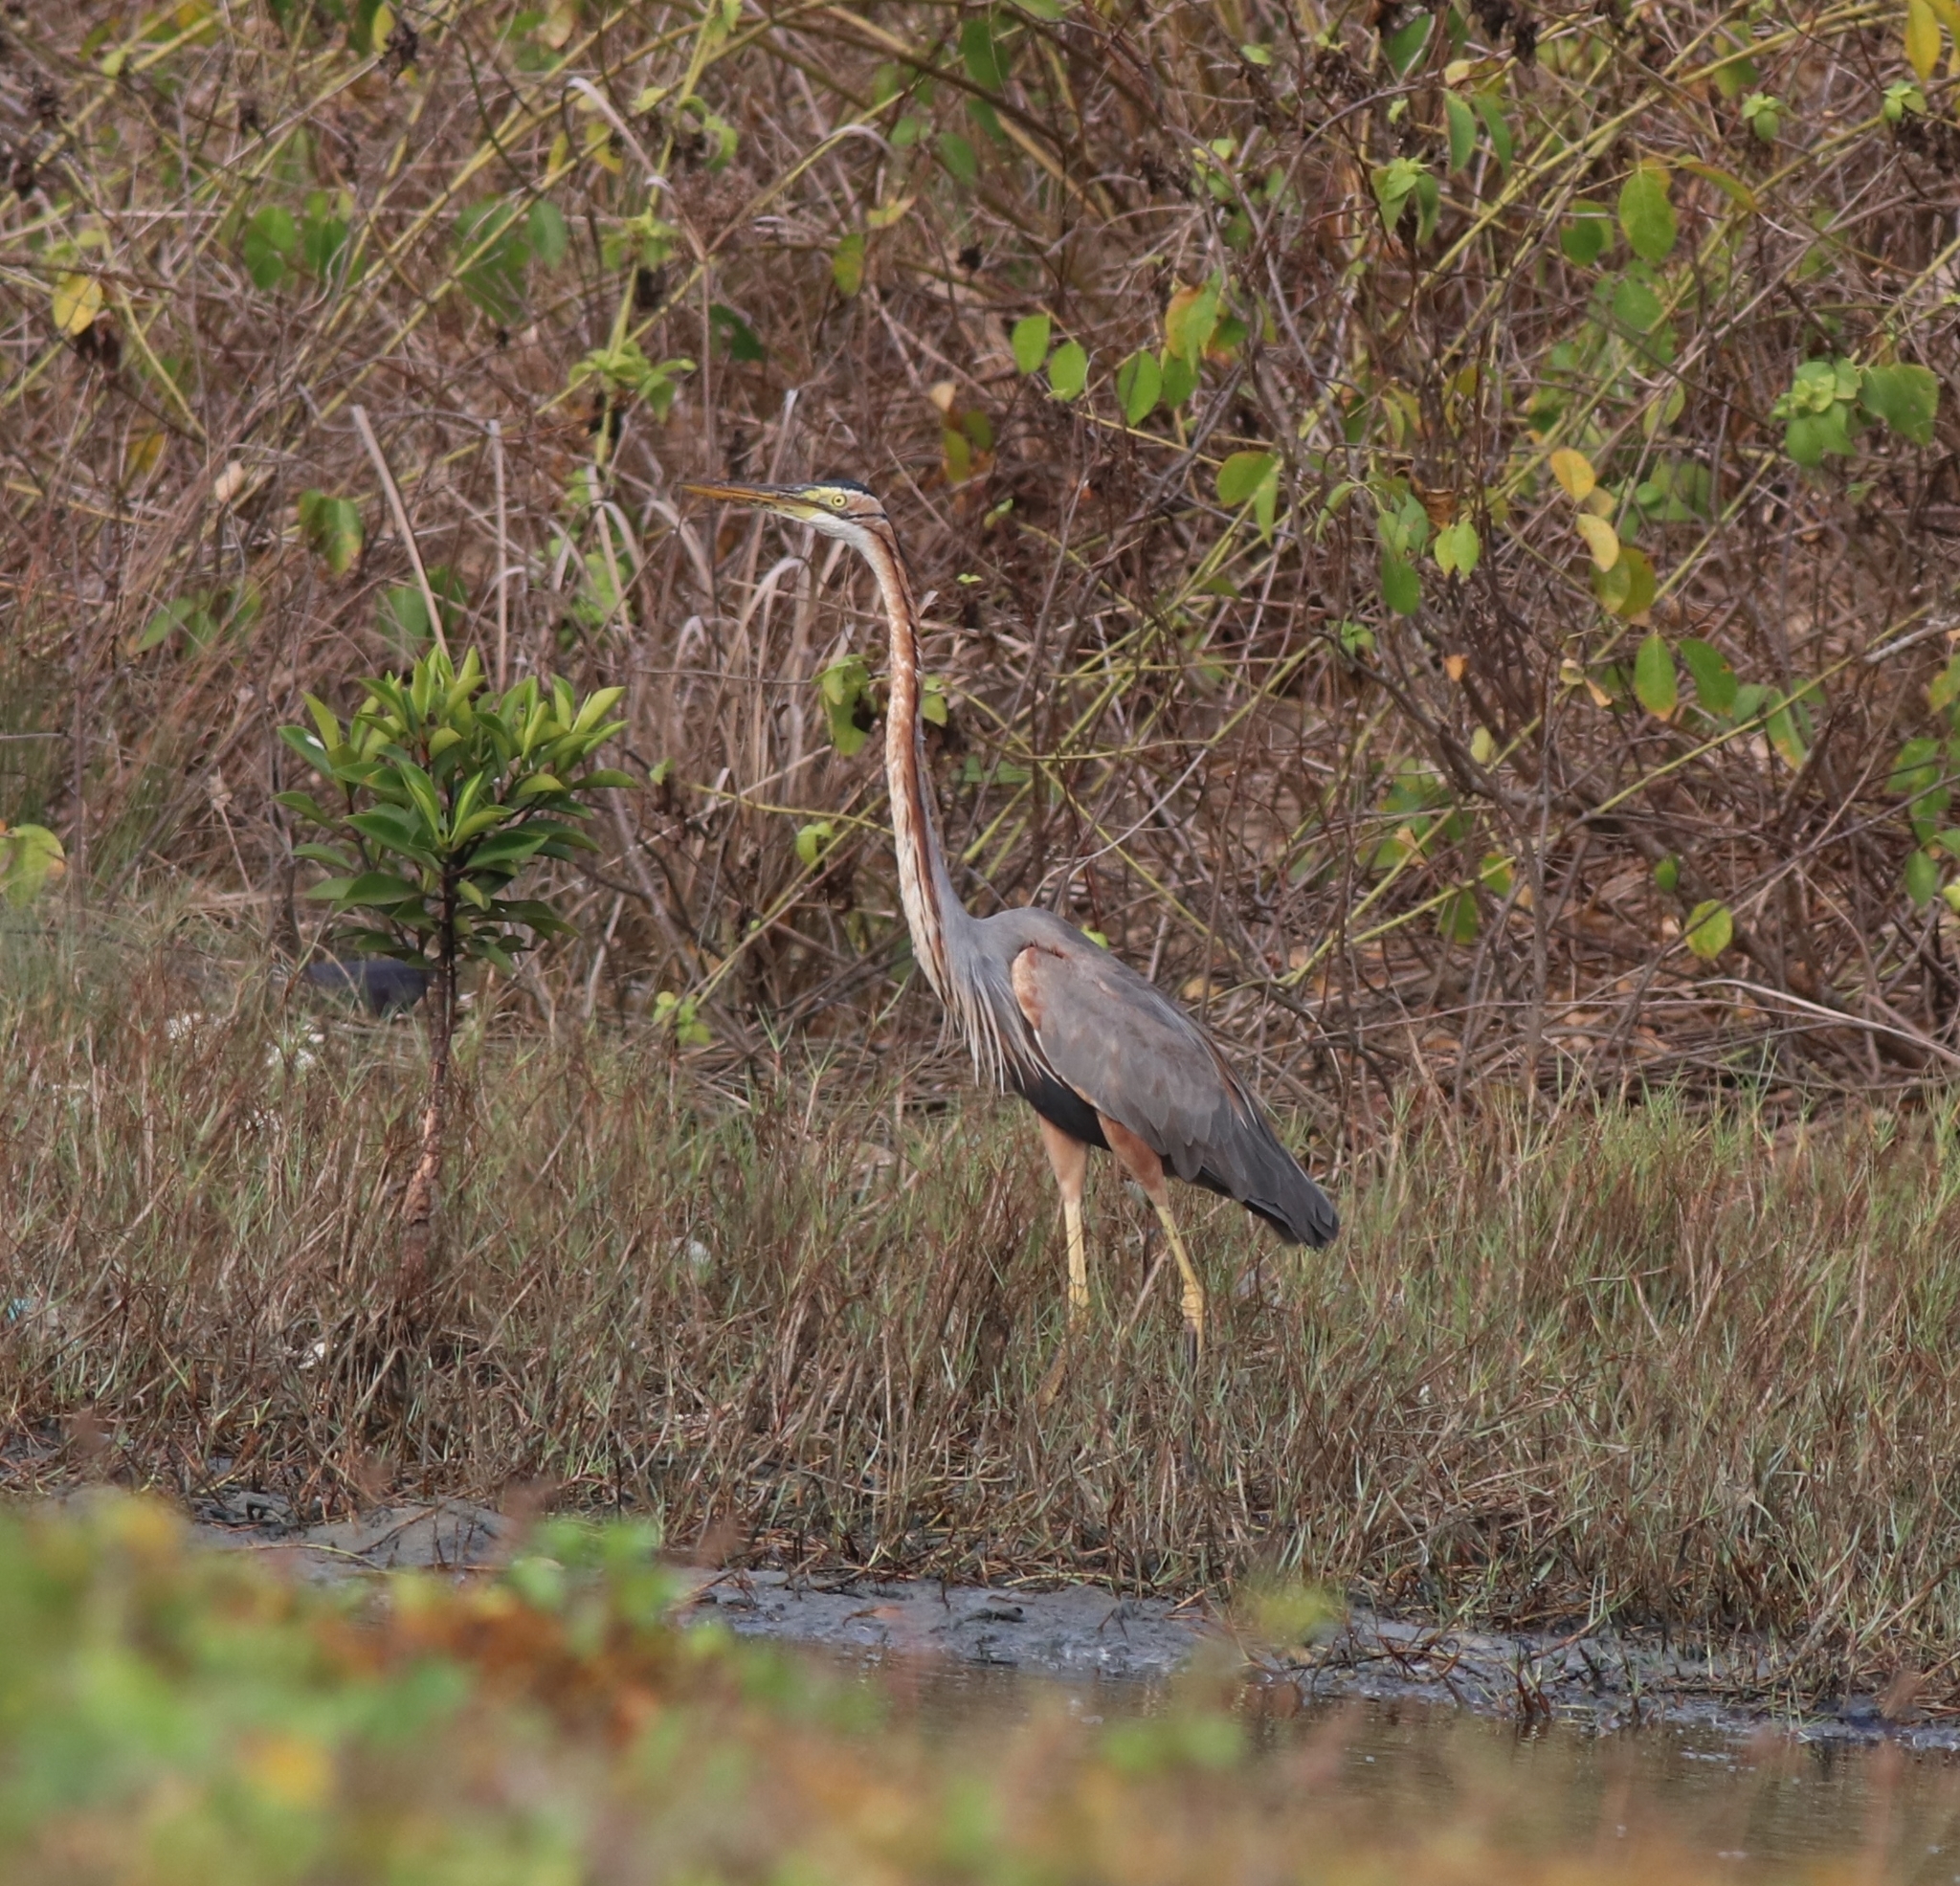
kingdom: Animalia
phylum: Chordata
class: Aves
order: Pelecaniformes
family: Ardeidae
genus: Ardea
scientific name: Ardea purpurea
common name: Purple heron
